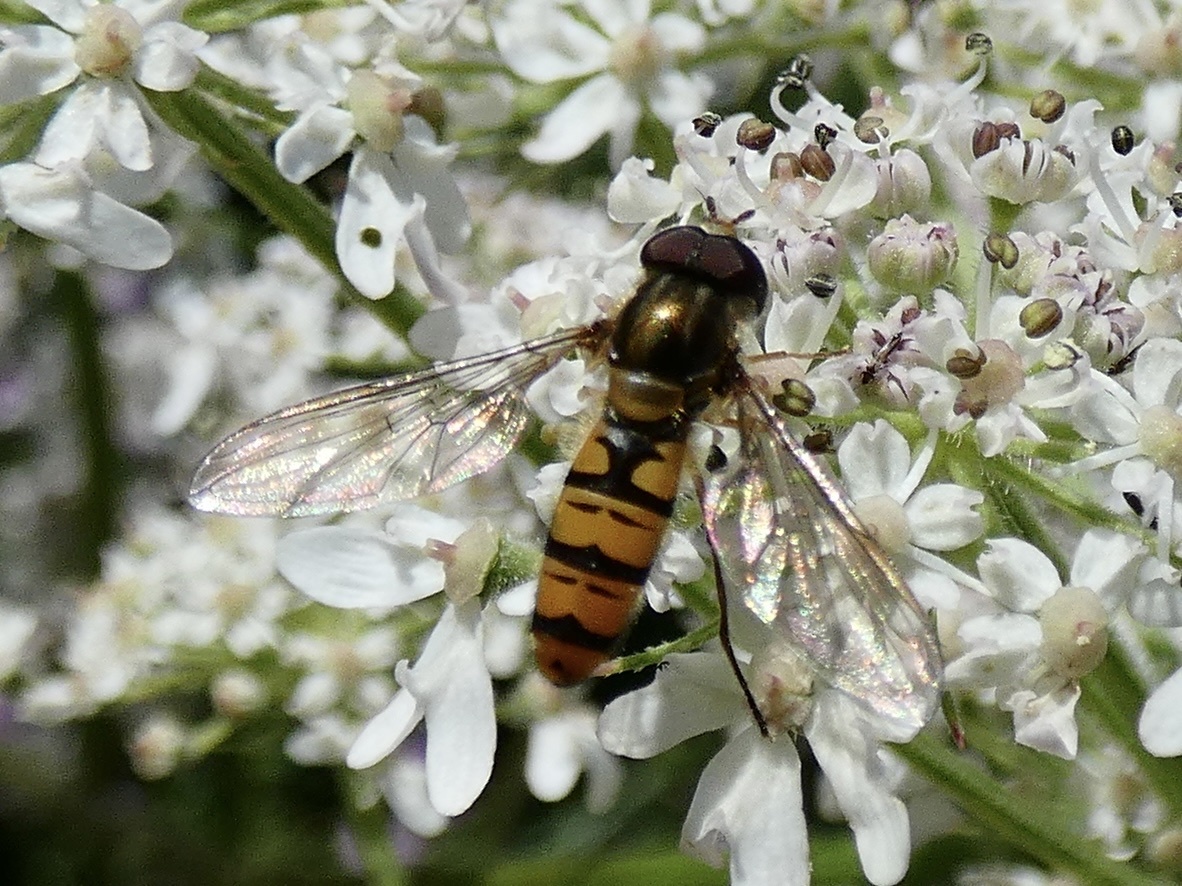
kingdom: Animalia
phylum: Arthropoda
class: Insecta
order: Diptera
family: Syrphidae
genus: Episyrphus
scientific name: Episyrphus balteatus
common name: Marmalade hoverfly
